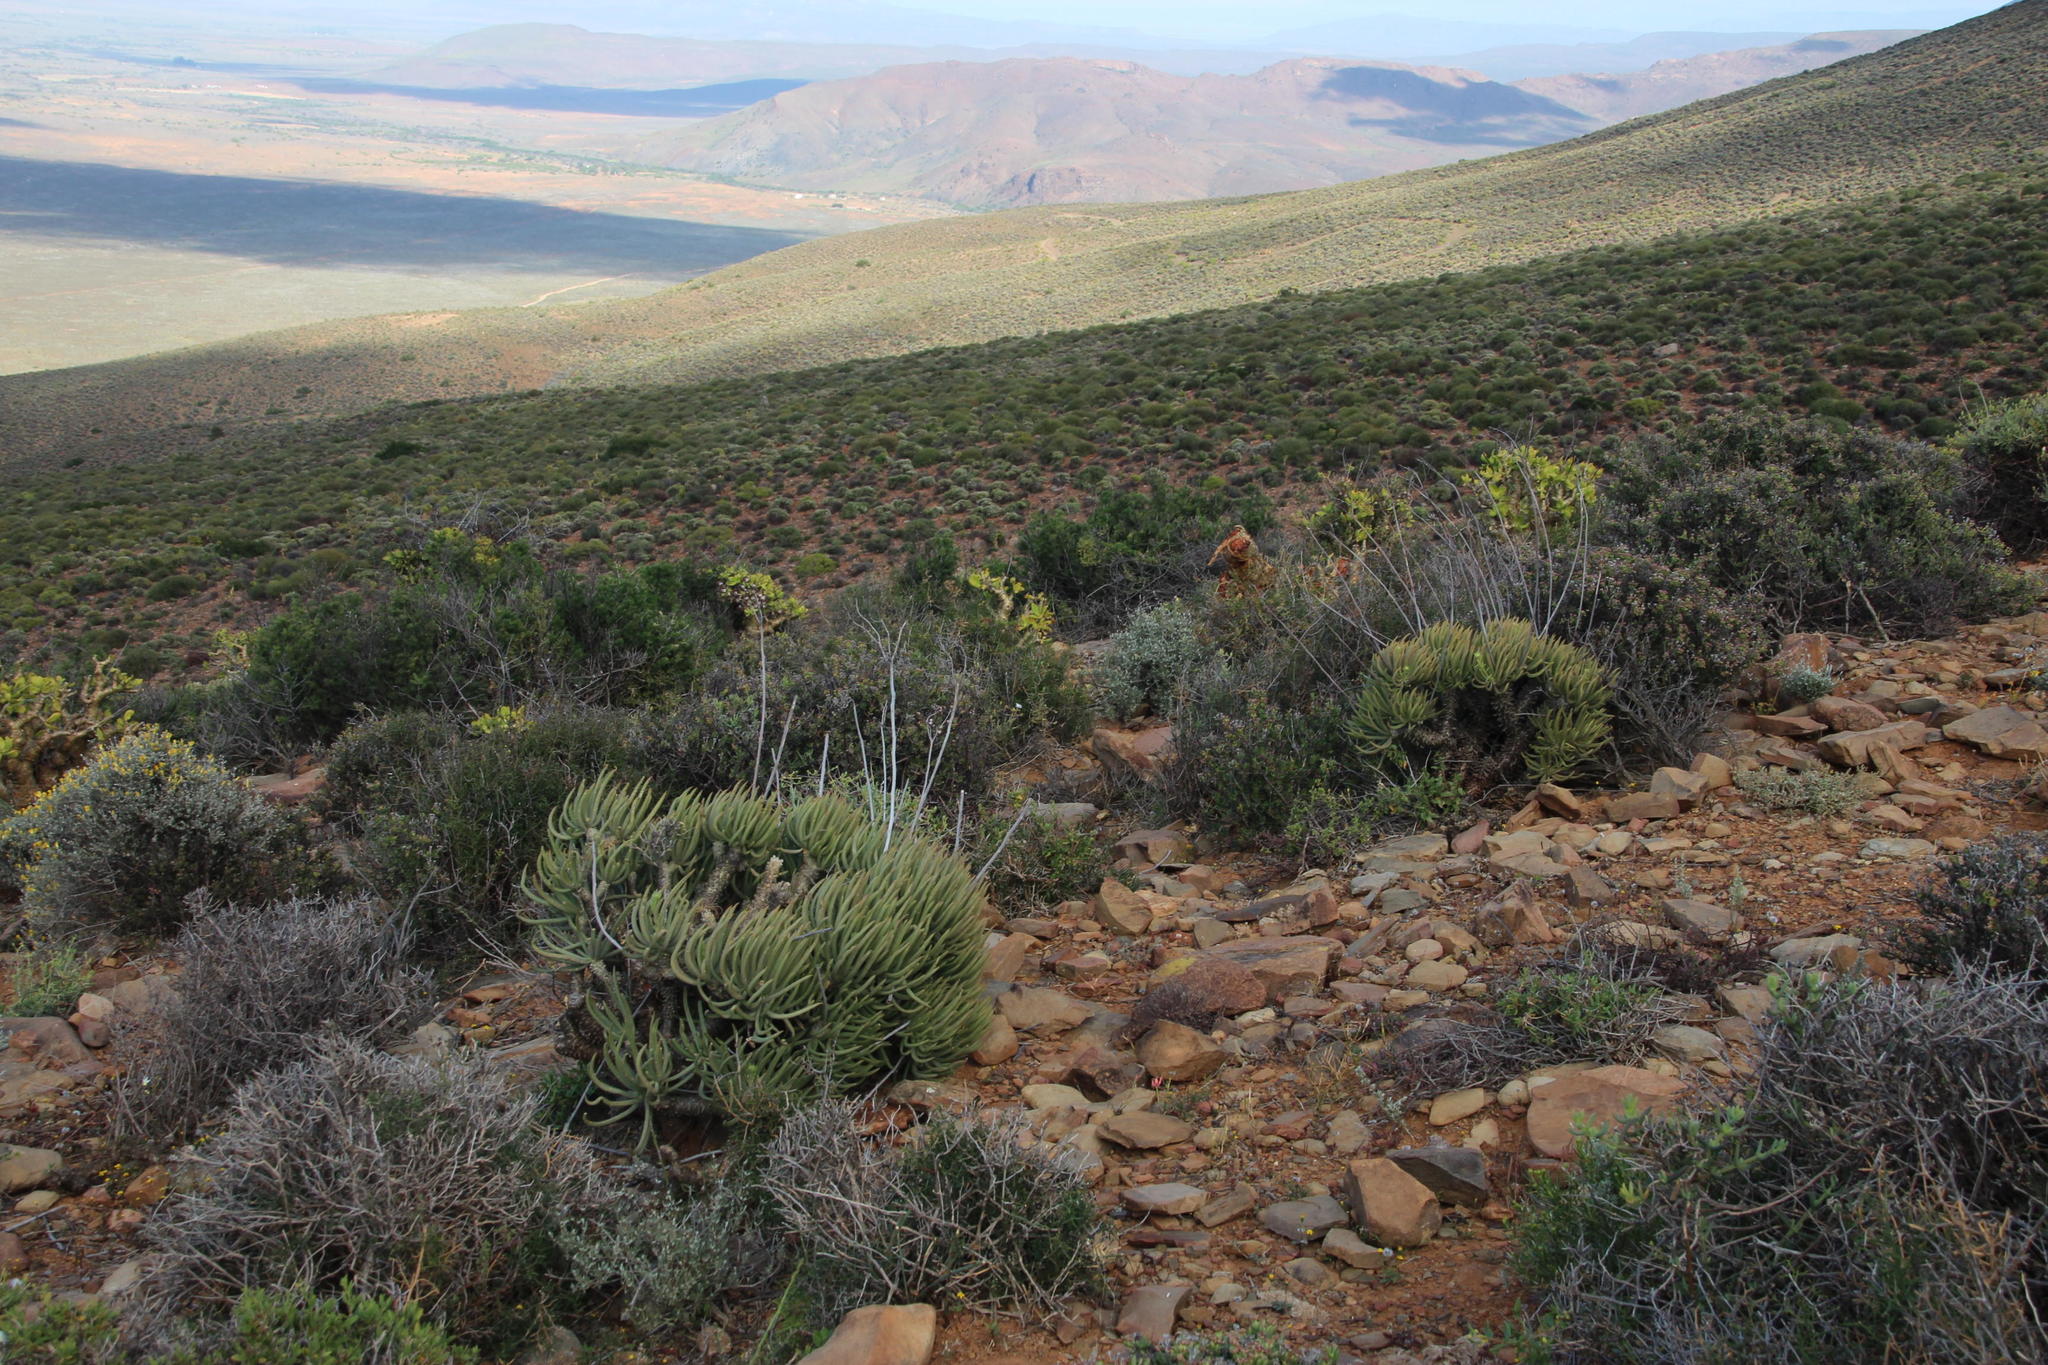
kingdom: Plantae
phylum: Tracheophyta
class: Magnoliopsida
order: Saxifragales
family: Crassulaceae
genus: Tylecodon
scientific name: Tylecodon wallichii
